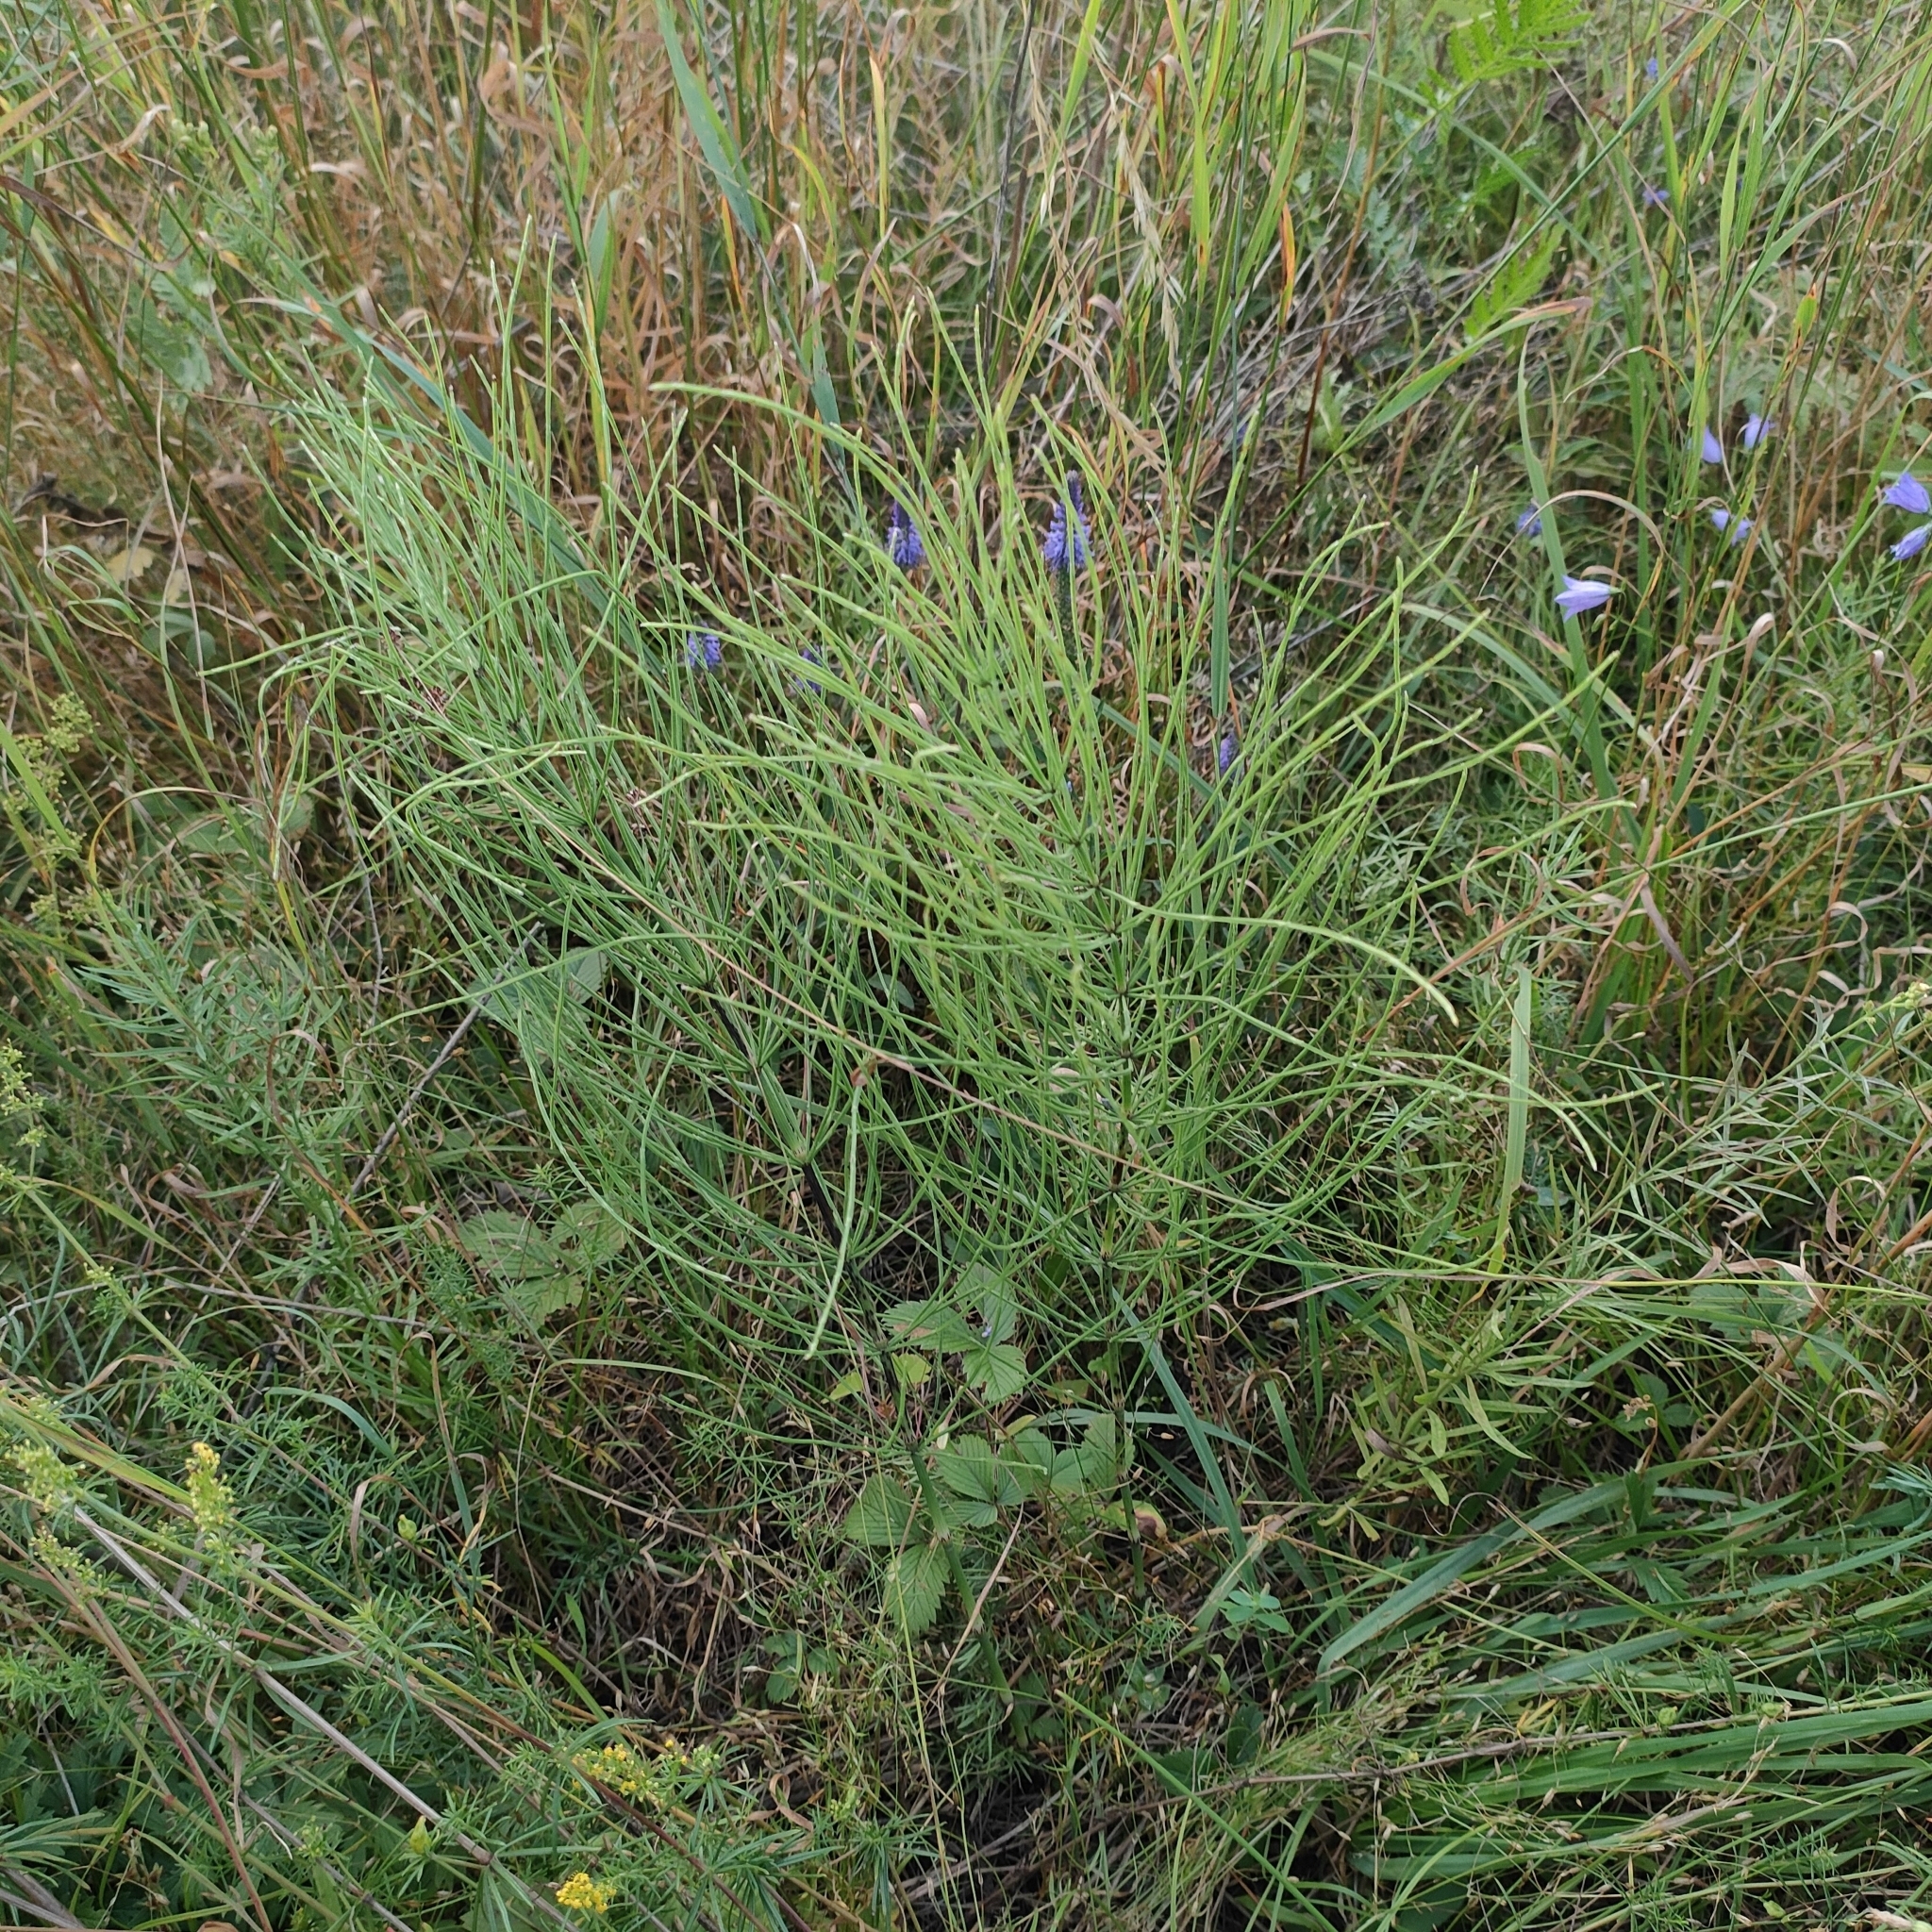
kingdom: Plantae
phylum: Tracheophyta
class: Polypodiopsida
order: Equisetales
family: Equisetaceae
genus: Equisetum
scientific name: Equisetum arvense
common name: Field horsetail
